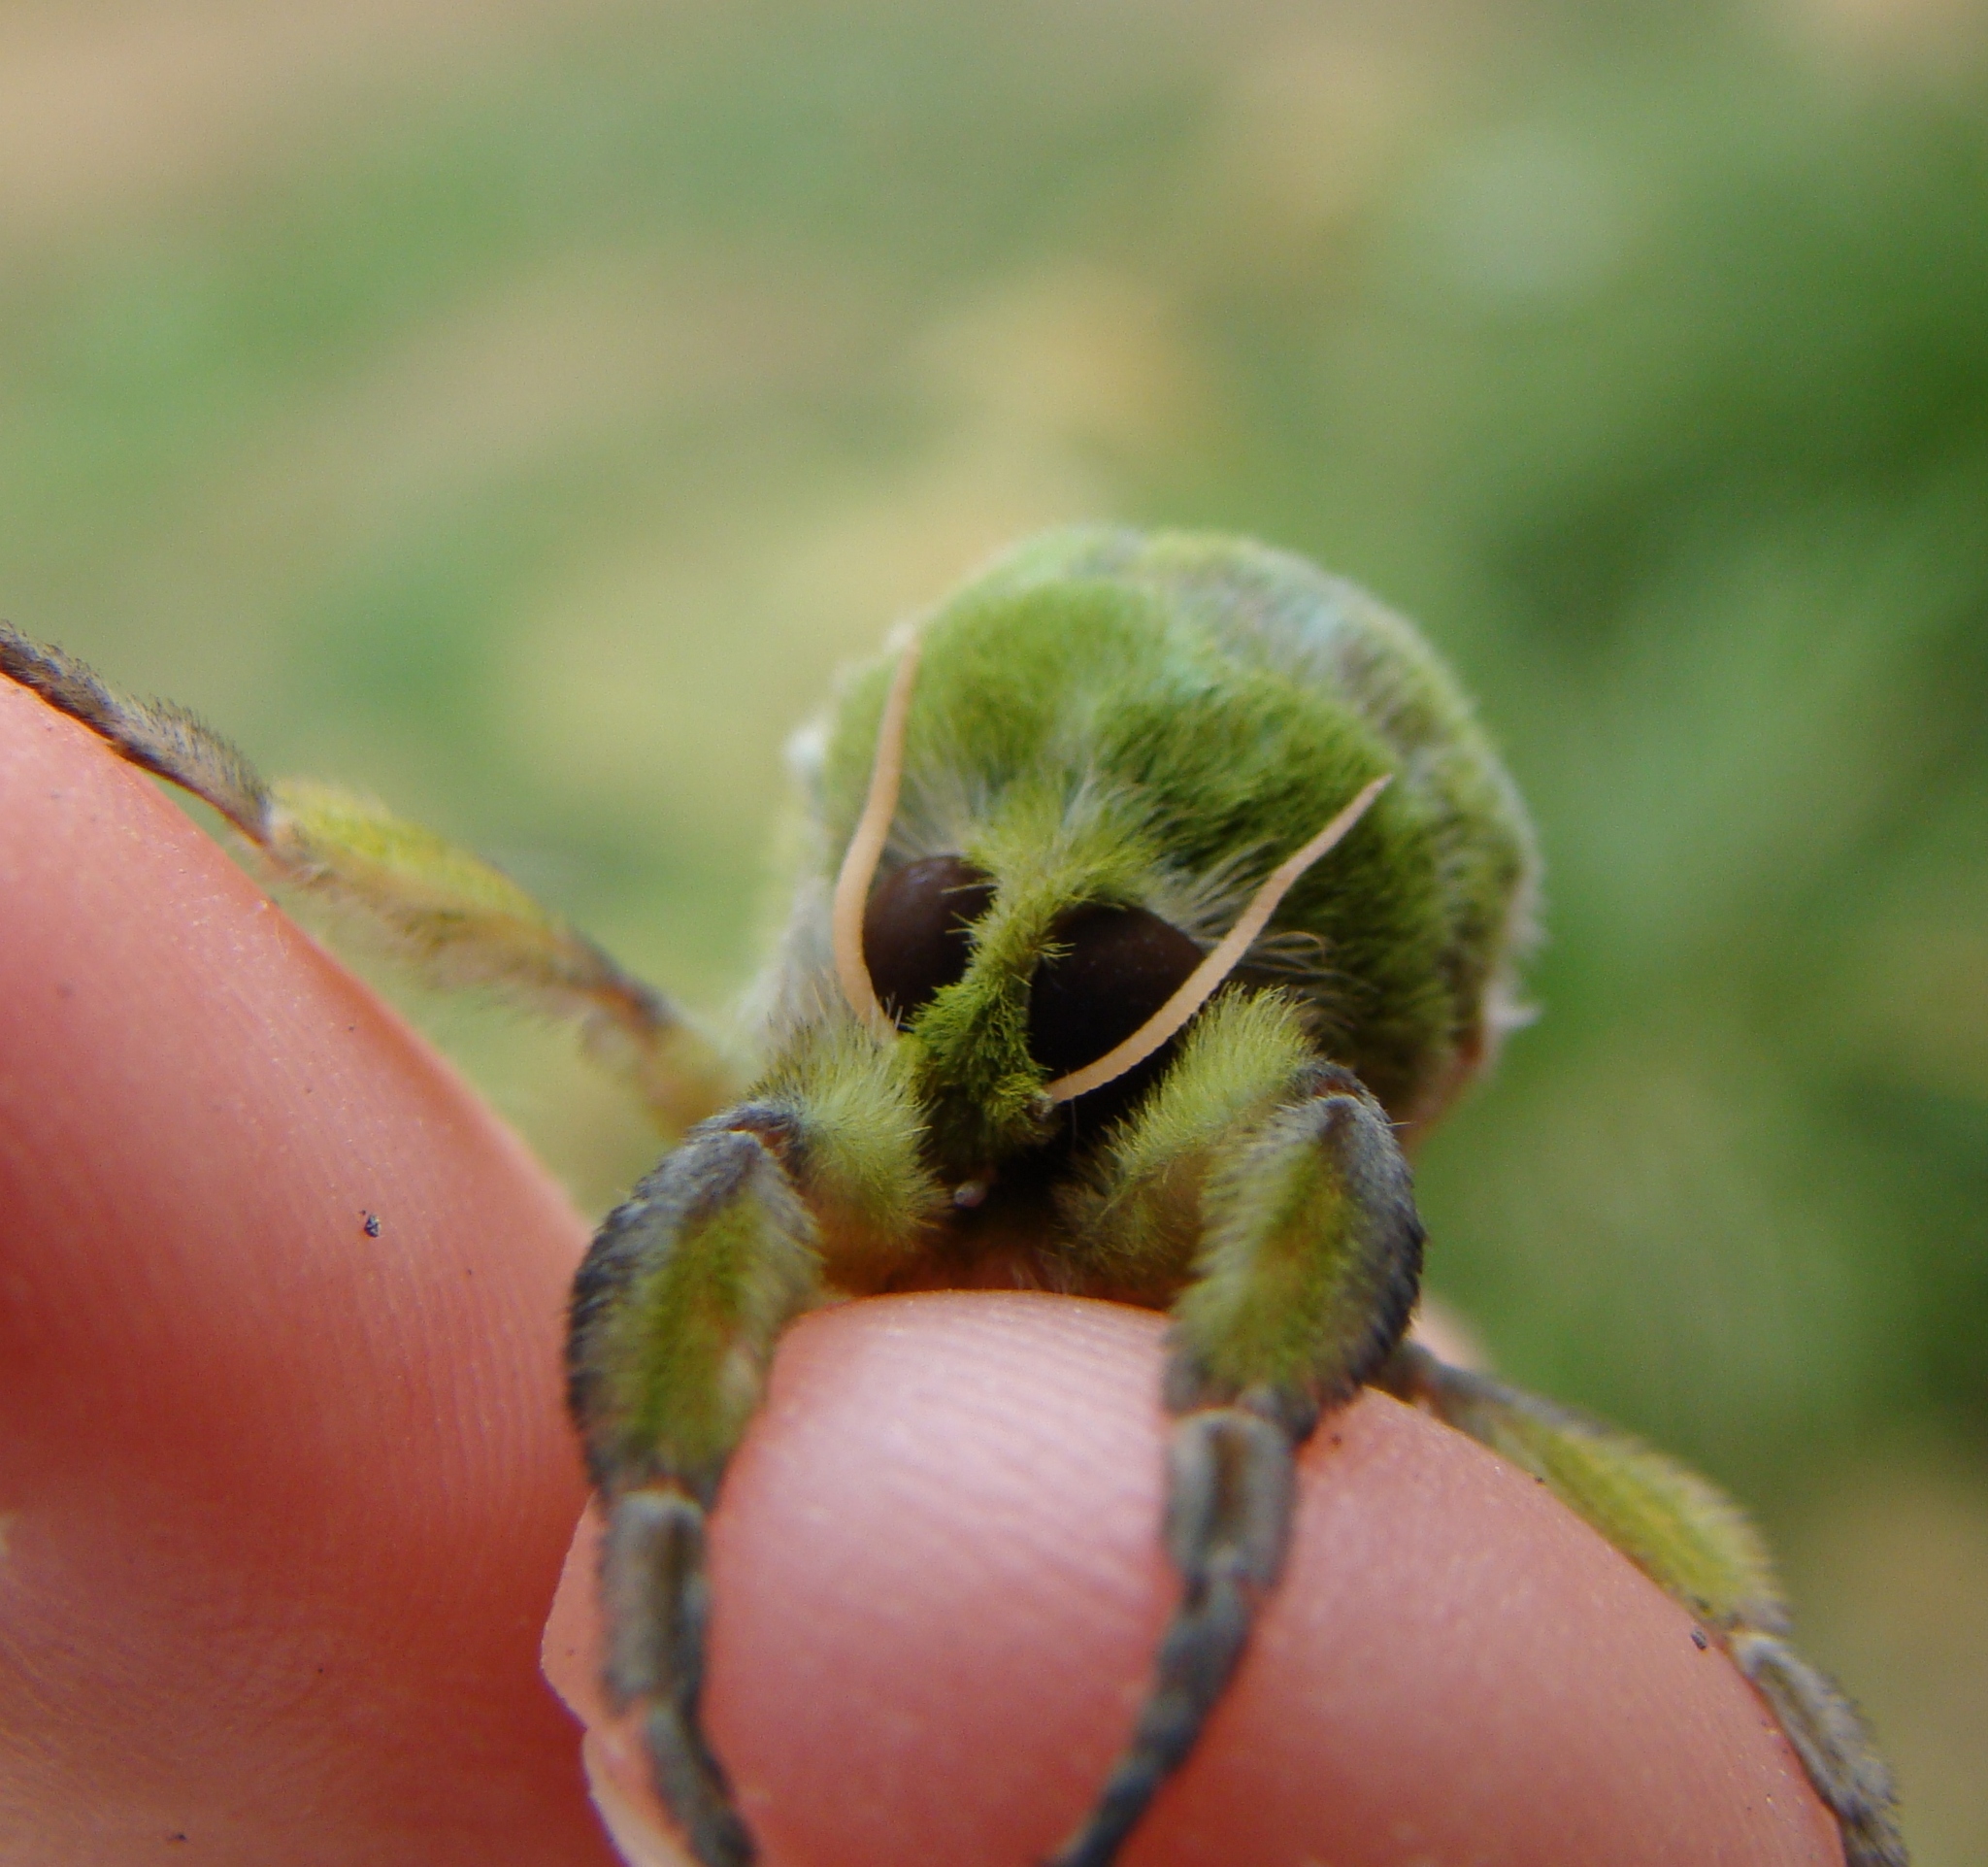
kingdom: Animalia
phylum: Arthropoda
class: Insecta
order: Lepidoptera
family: Hepialidae
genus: Aenetus
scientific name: Aenetus virescens
